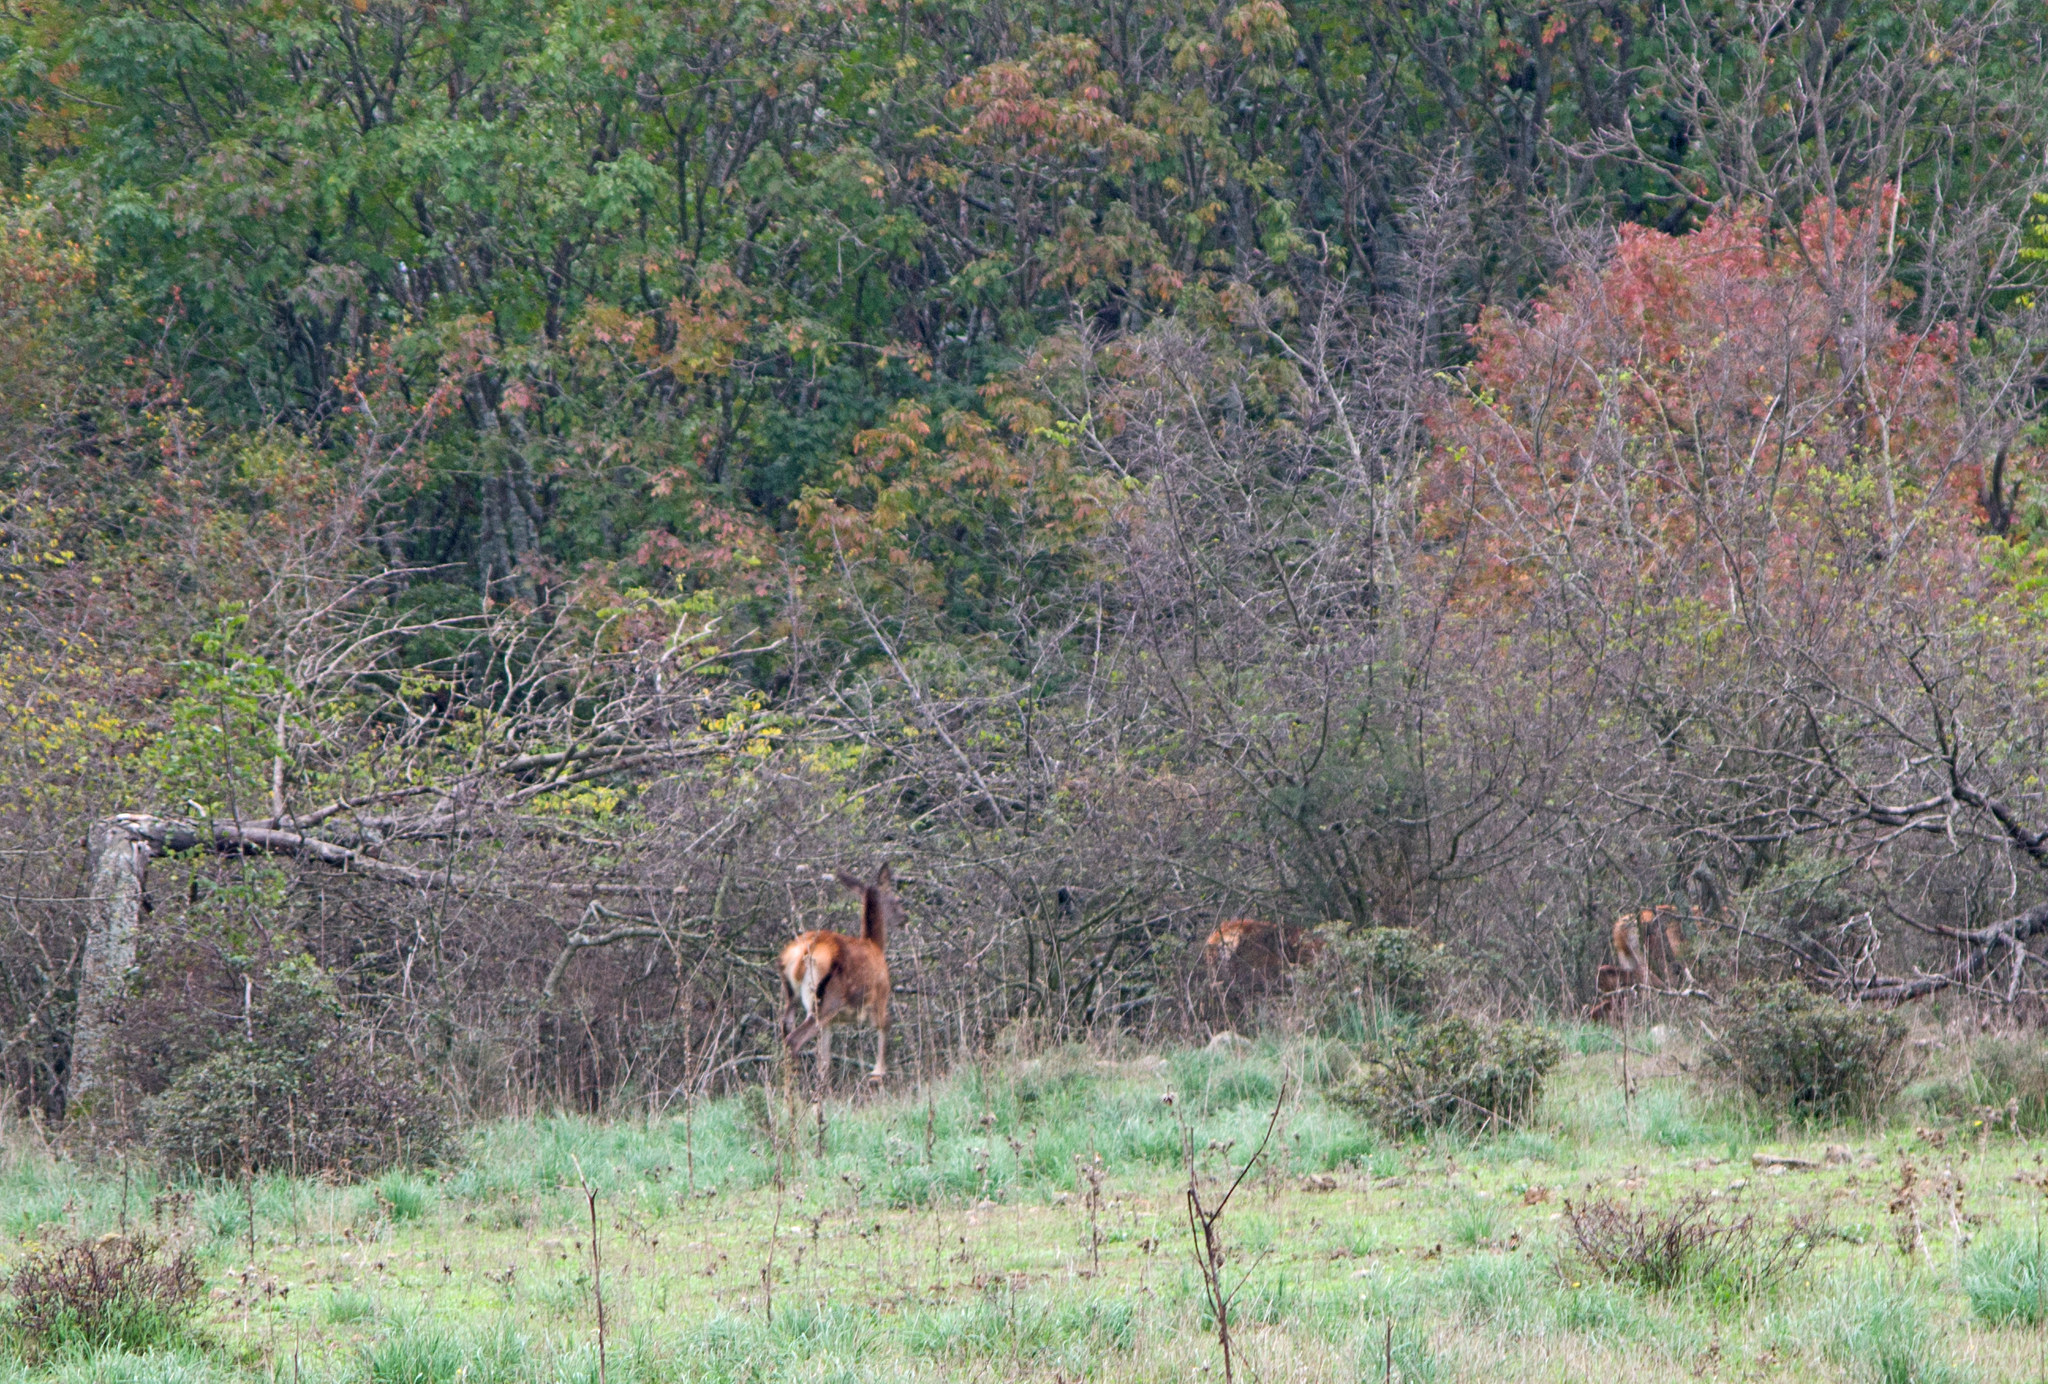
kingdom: Animalia
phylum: Chordata
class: Mammalia
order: Artiodactyla
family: Cervidae
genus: Cervus
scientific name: Cervus elaphus
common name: Red deer
